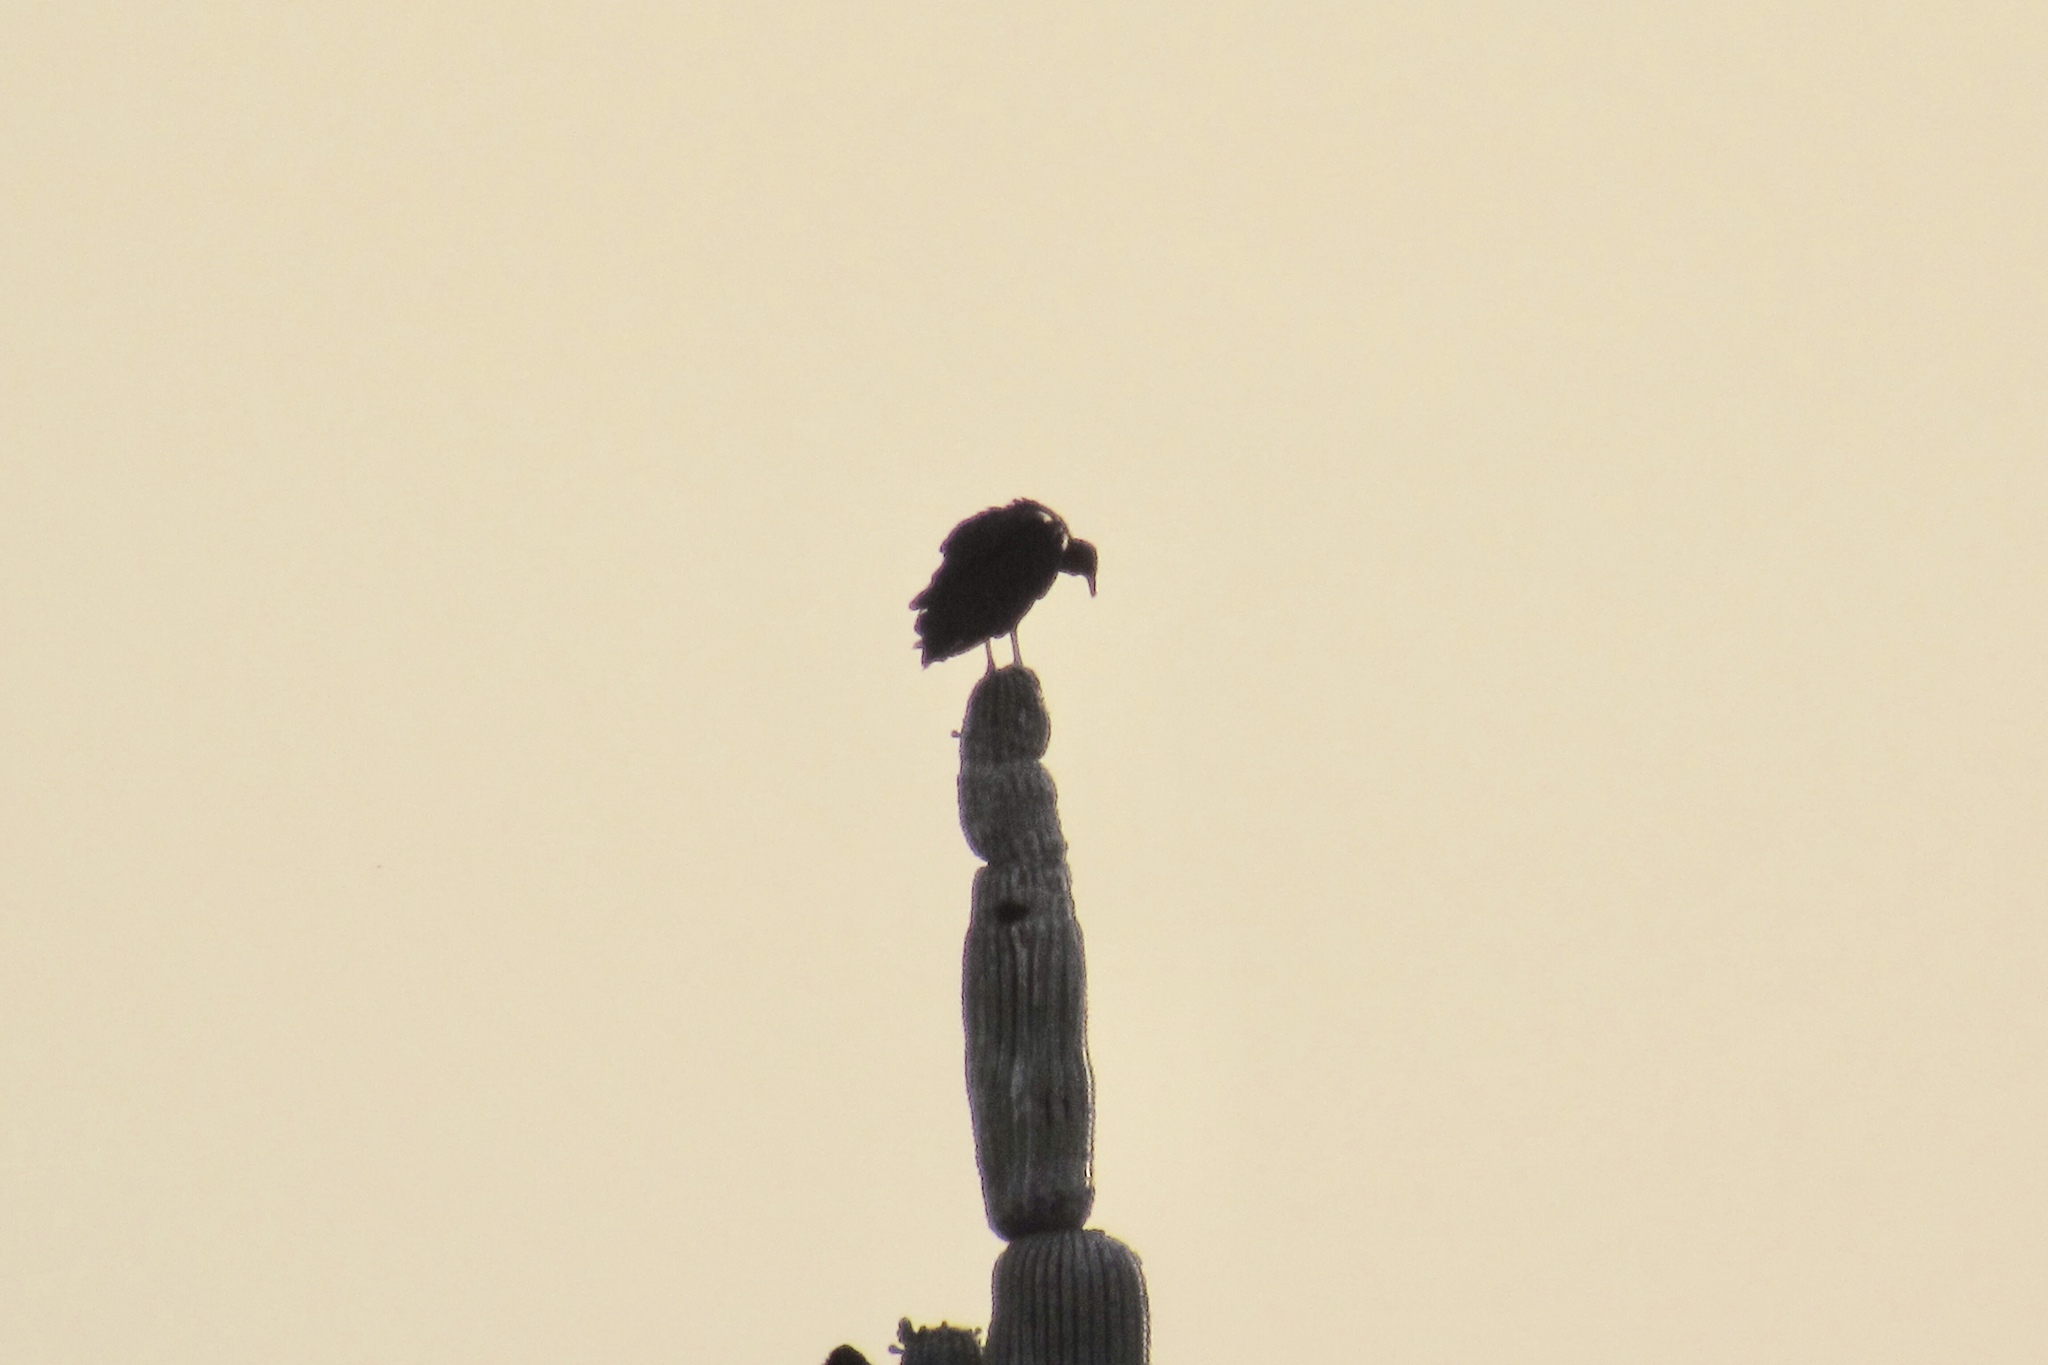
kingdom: Animalia
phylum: Chordata
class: Aves
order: Accipitriformes
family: Cathartidae
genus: Coragyps
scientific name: Coragyps atratus
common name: Black vulture
